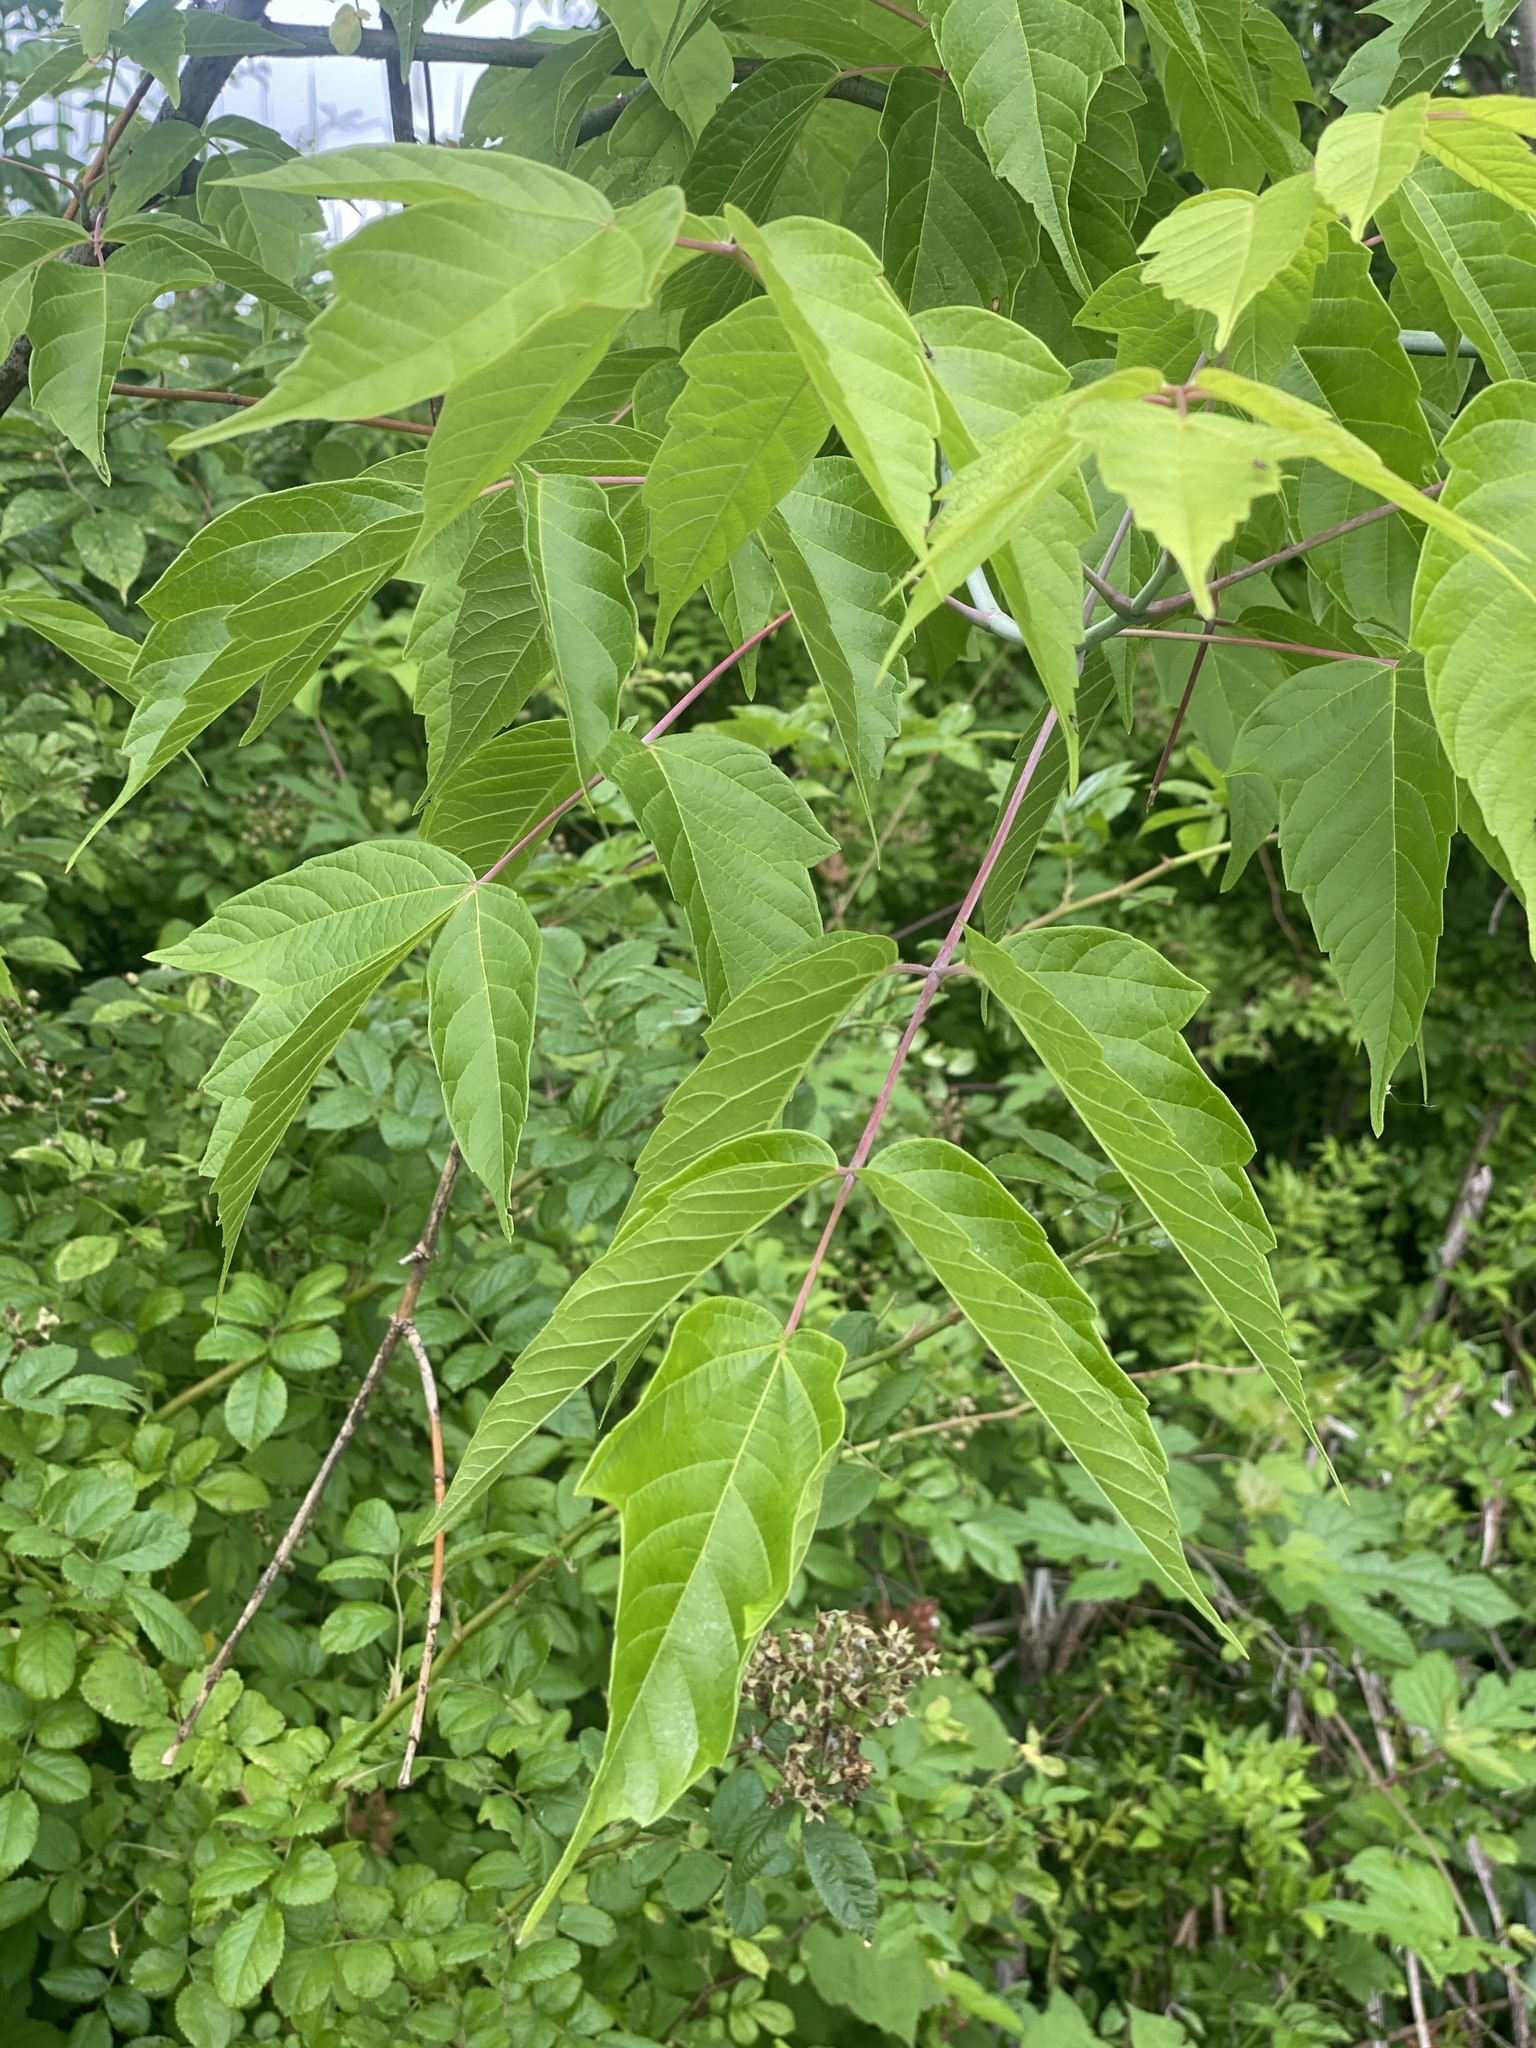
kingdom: Plantae
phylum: Tracheophyta
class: Magnoliopsida
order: Sapindales
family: Sapindaceae
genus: Acer
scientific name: Acer negundo
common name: Ashleaf maple
